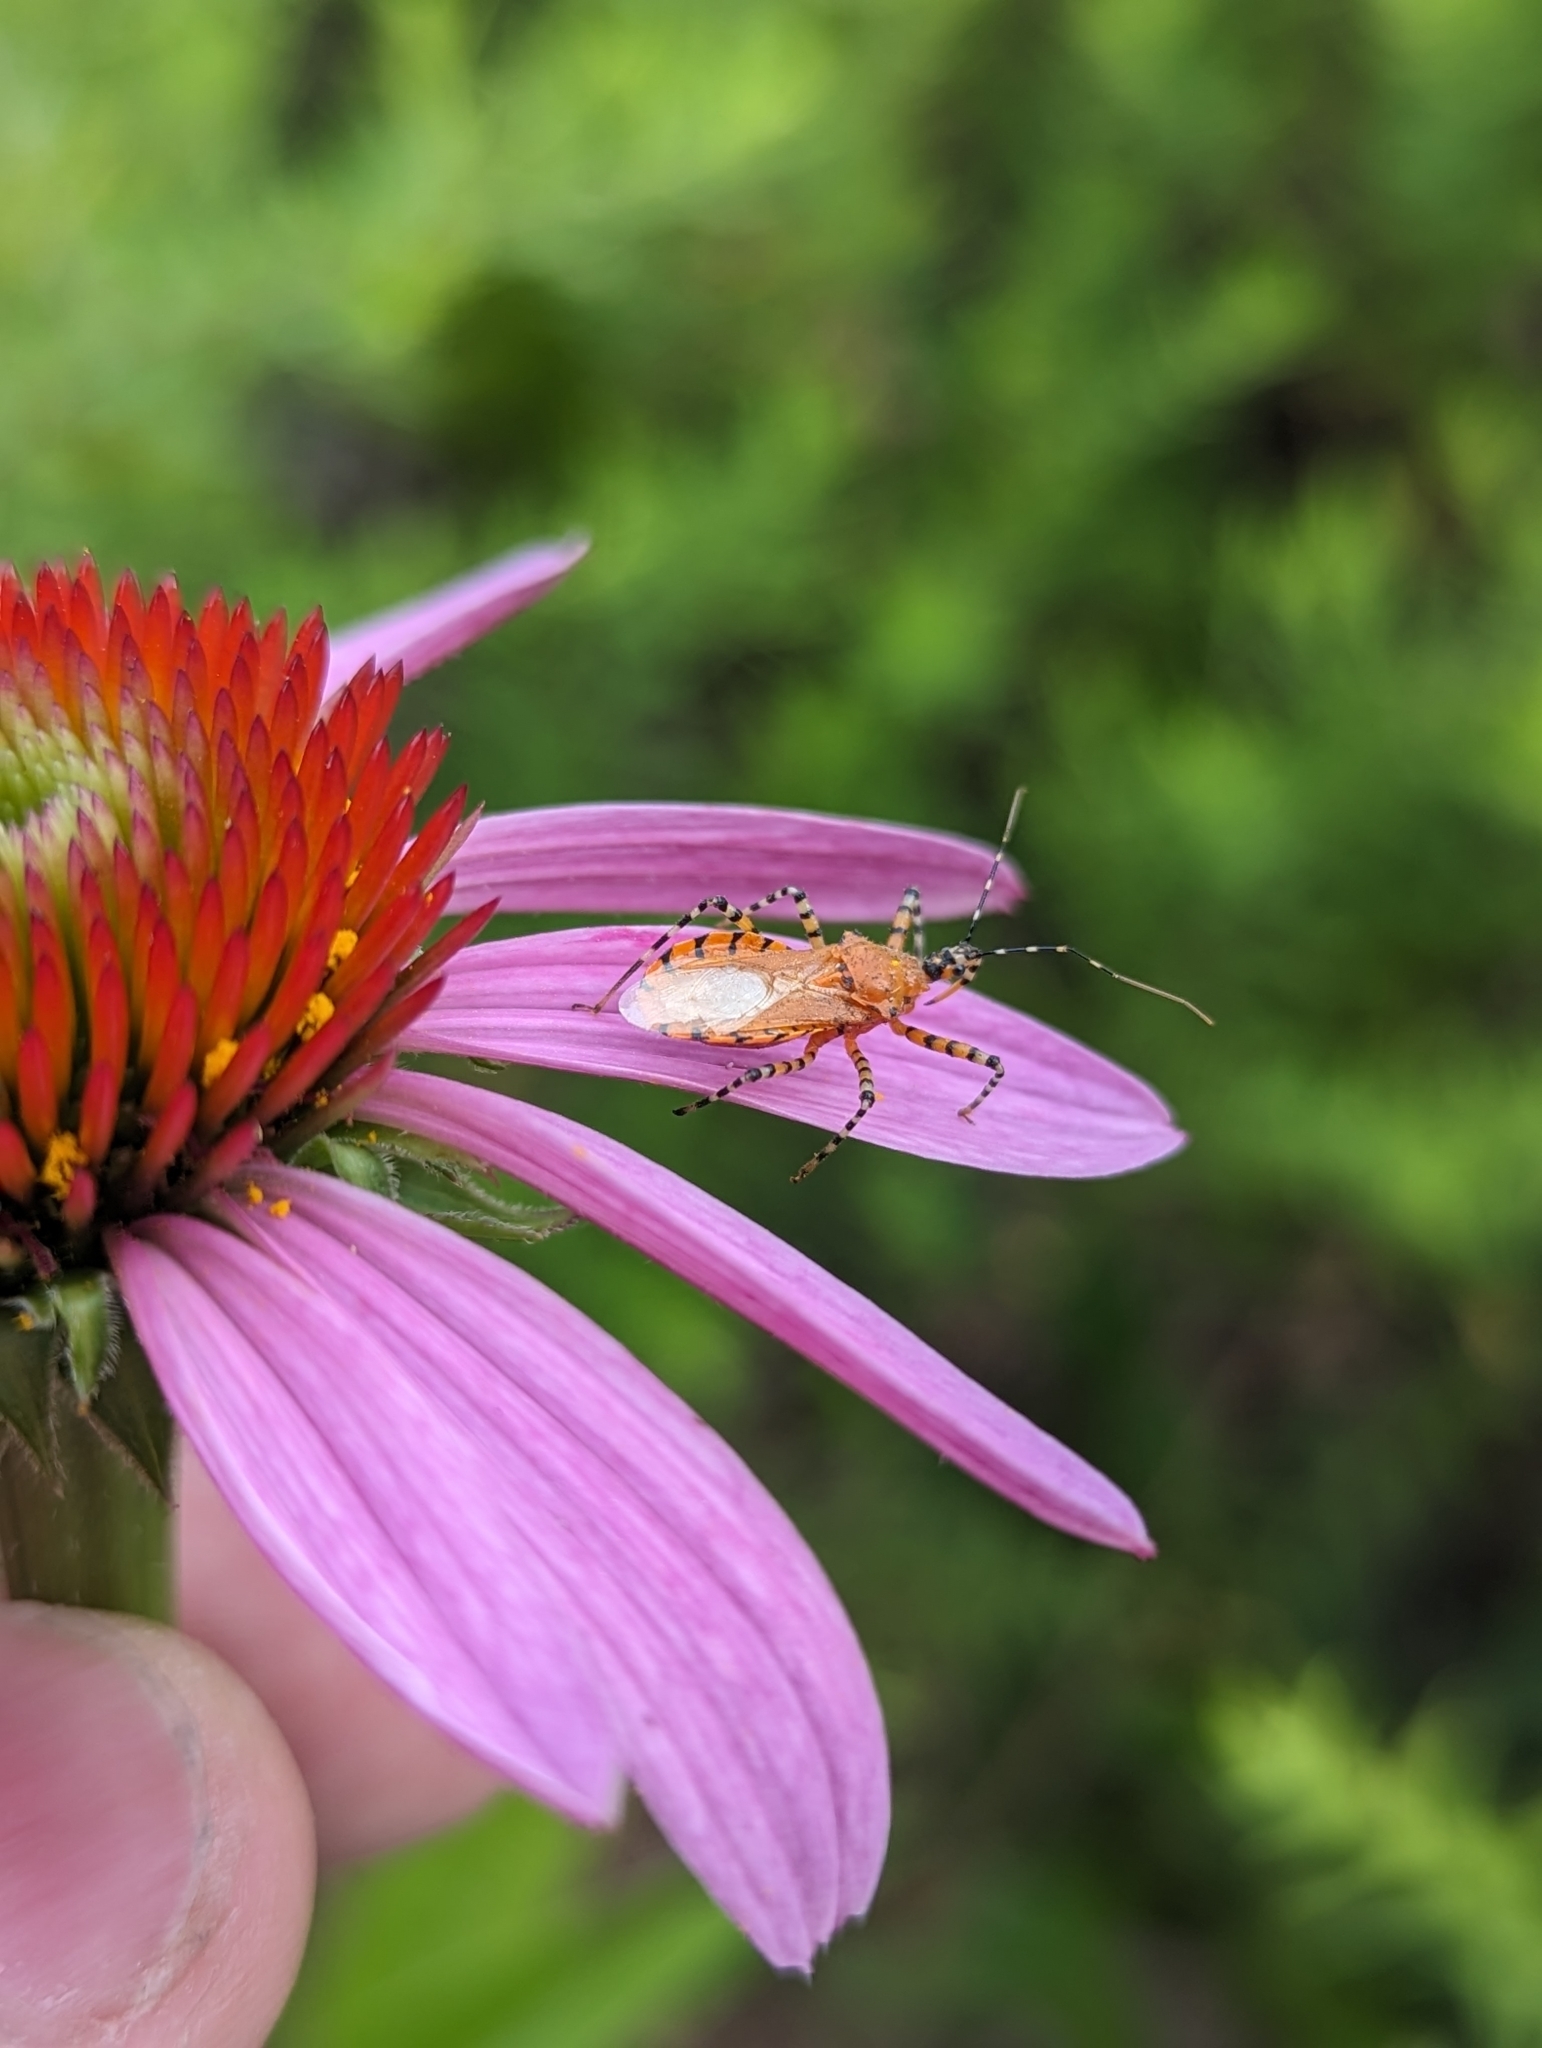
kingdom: Animalia
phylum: Arthropoda
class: Insecta
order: Hemiptera
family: Reduviidae
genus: Pselliopus
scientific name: Pselliopus barberi
